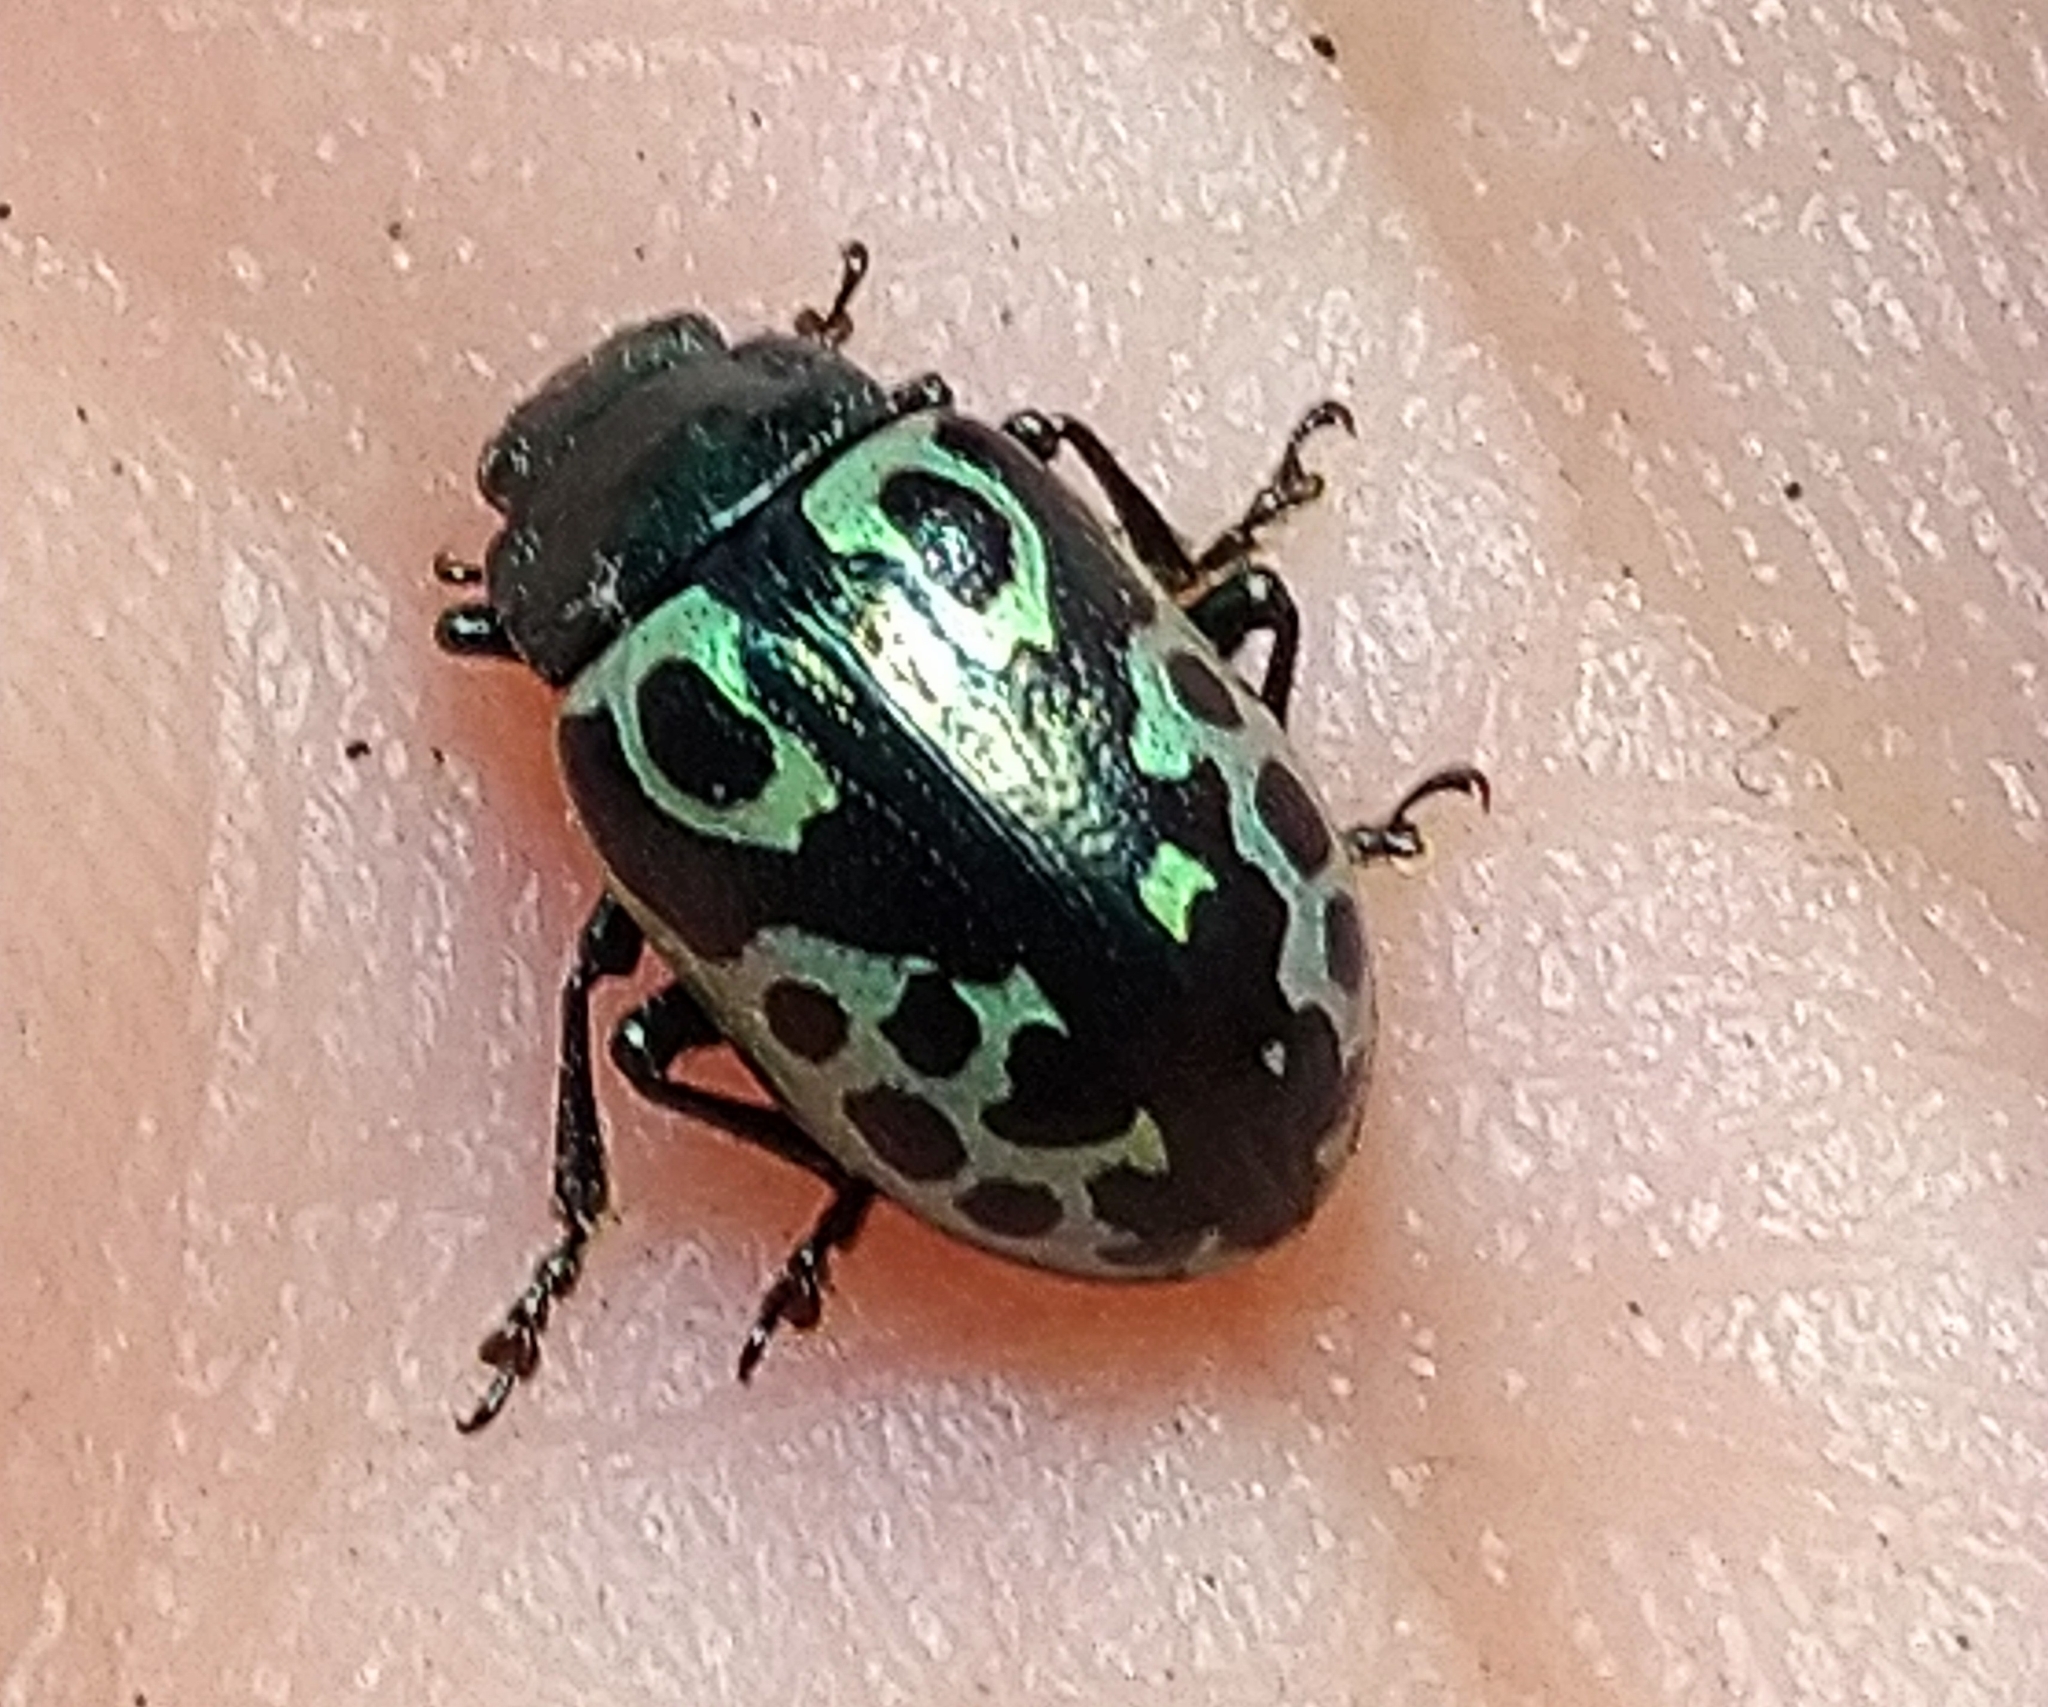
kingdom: Animalia
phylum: Arthropoda
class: Insecta
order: Coleoptera
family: Chrysomelidae
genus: Calligrapha
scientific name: Calligrapha
